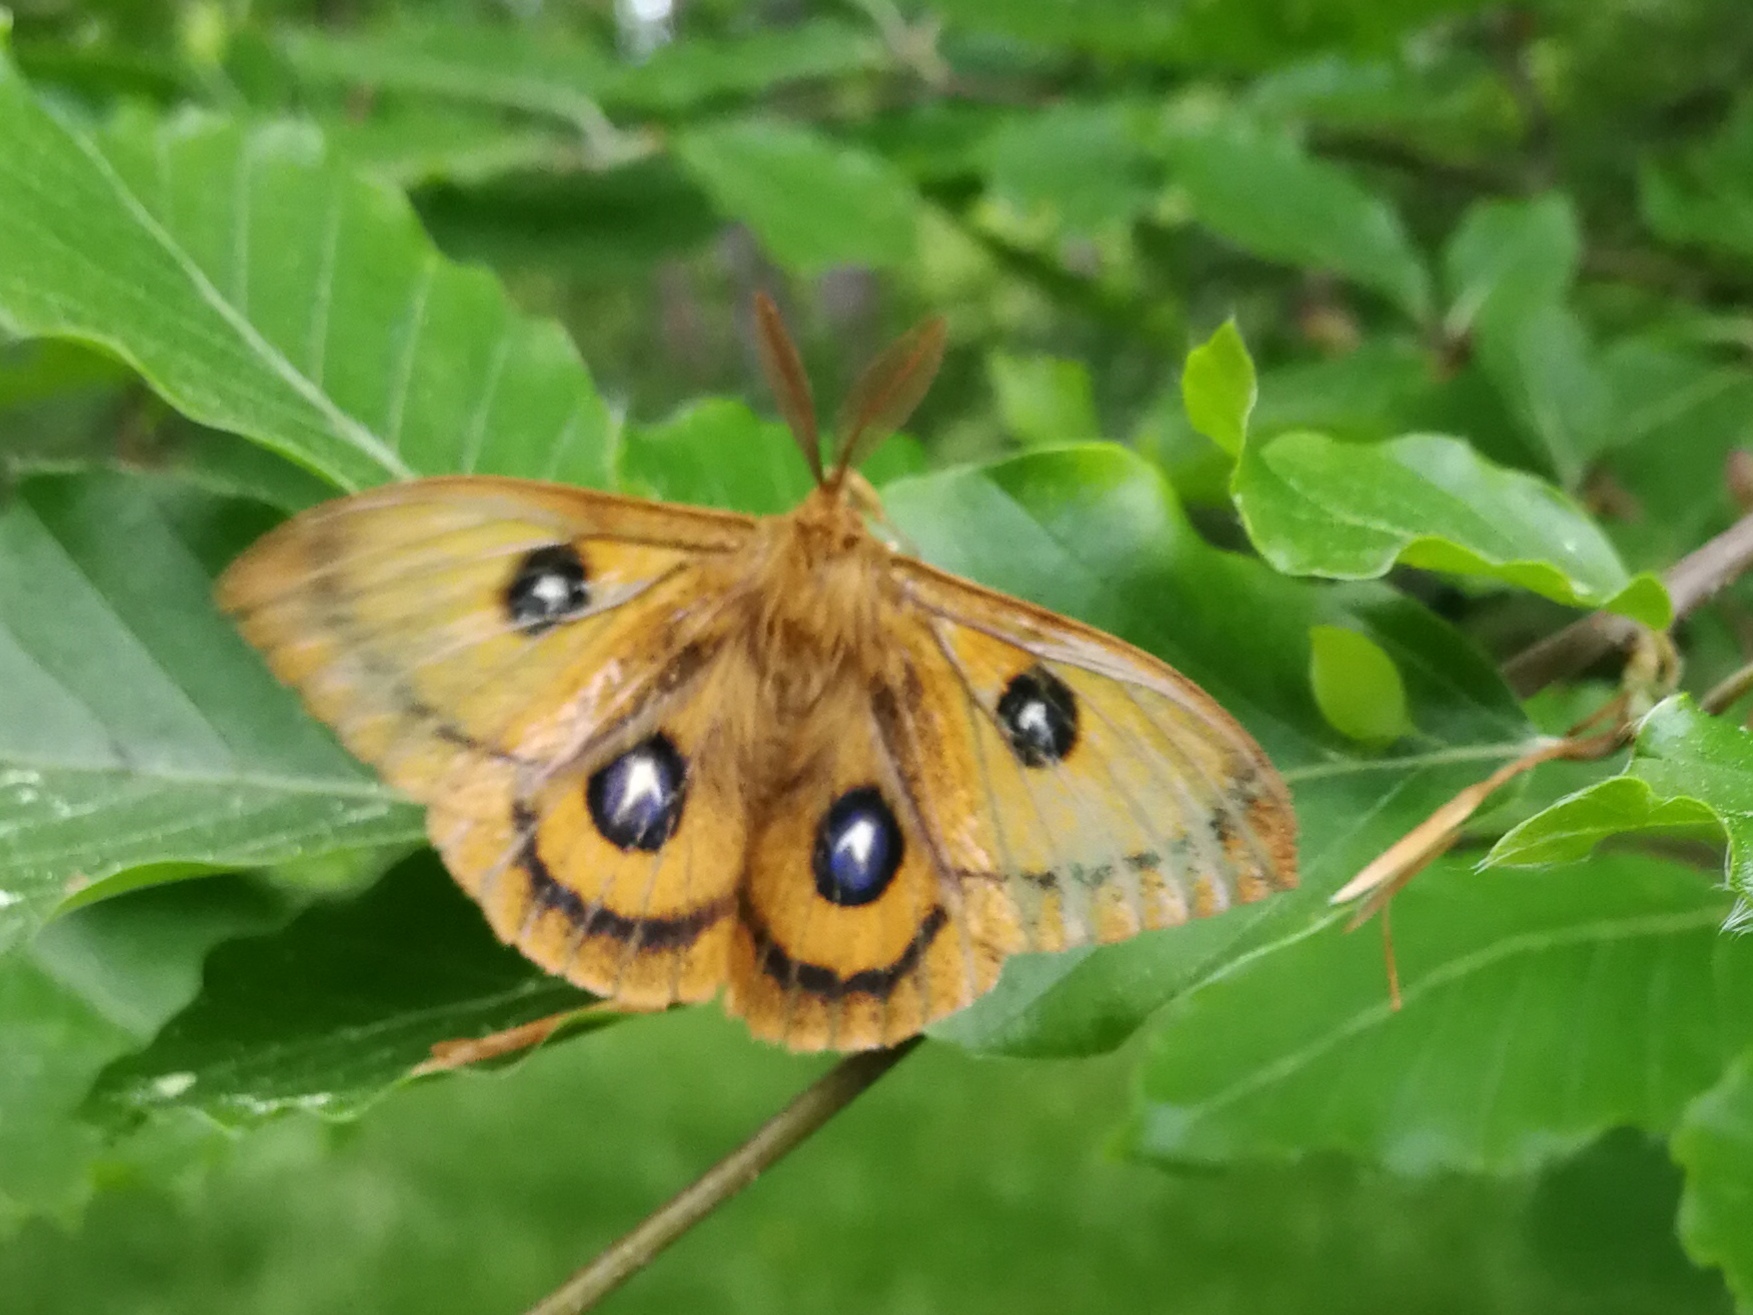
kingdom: Animalia
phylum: Arthropoda
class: Insecta
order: Lepidoptera
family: Saturniidae
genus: Aglia
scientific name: Aglia tau
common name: Tau emperor
